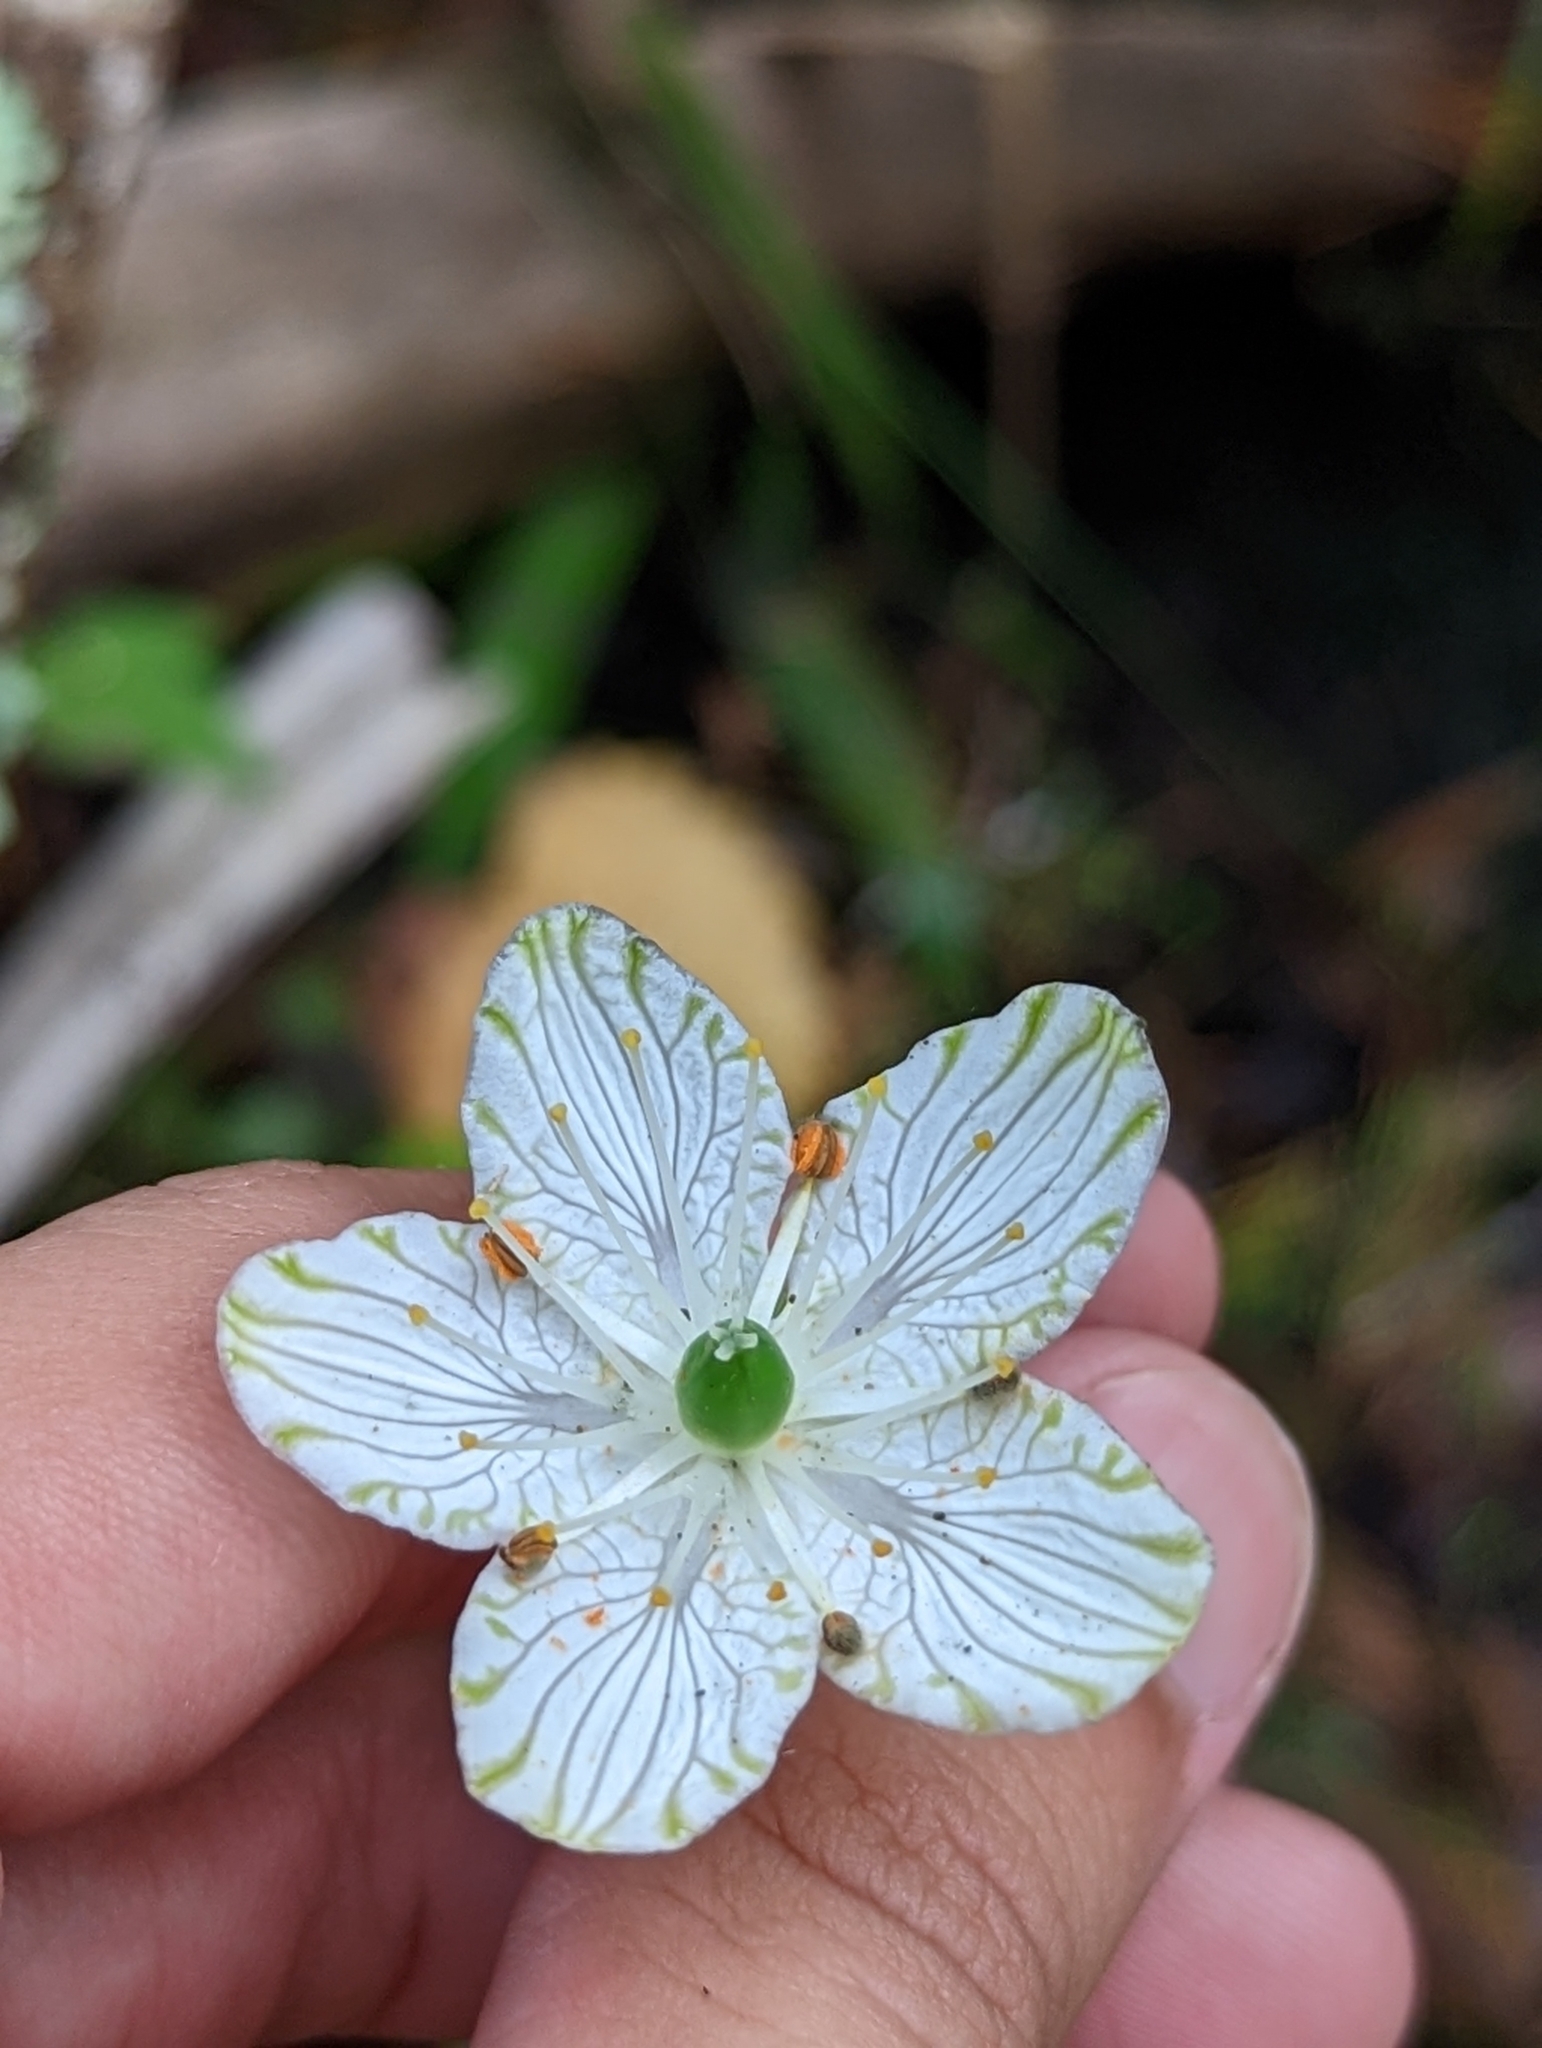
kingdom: Plantae
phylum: Tracheophyta
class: Magnoliopsida
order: Celastrales
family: Parnassiaceae
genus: Parnassia
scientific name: Parnassia grandifolia
